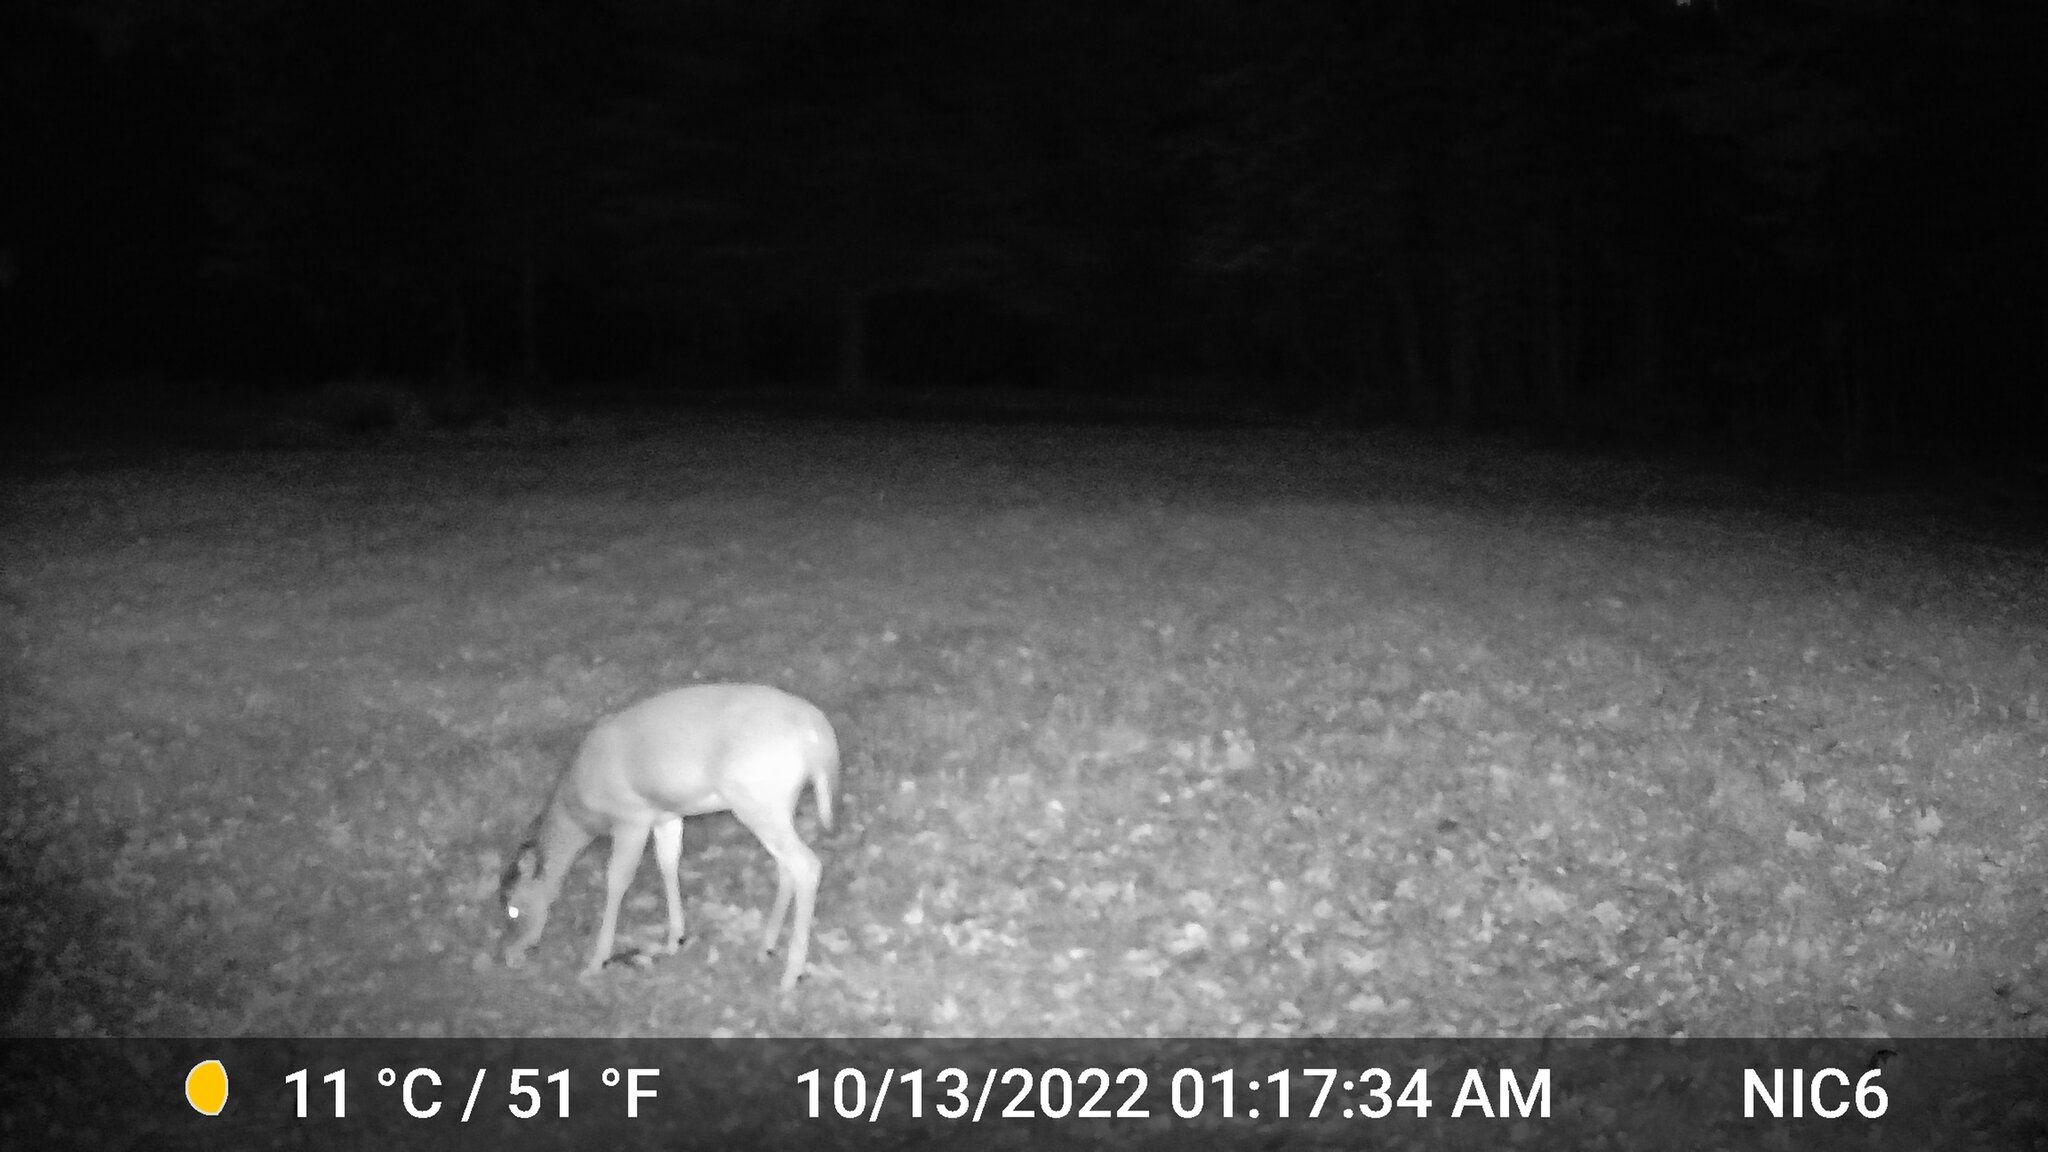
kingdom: Animalia
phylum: Chordata
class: Mammalia
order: Artiodactyla
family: Cervidae
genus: Odocoileus
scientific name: Odocoileus virginianus
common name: White-tailed deer
